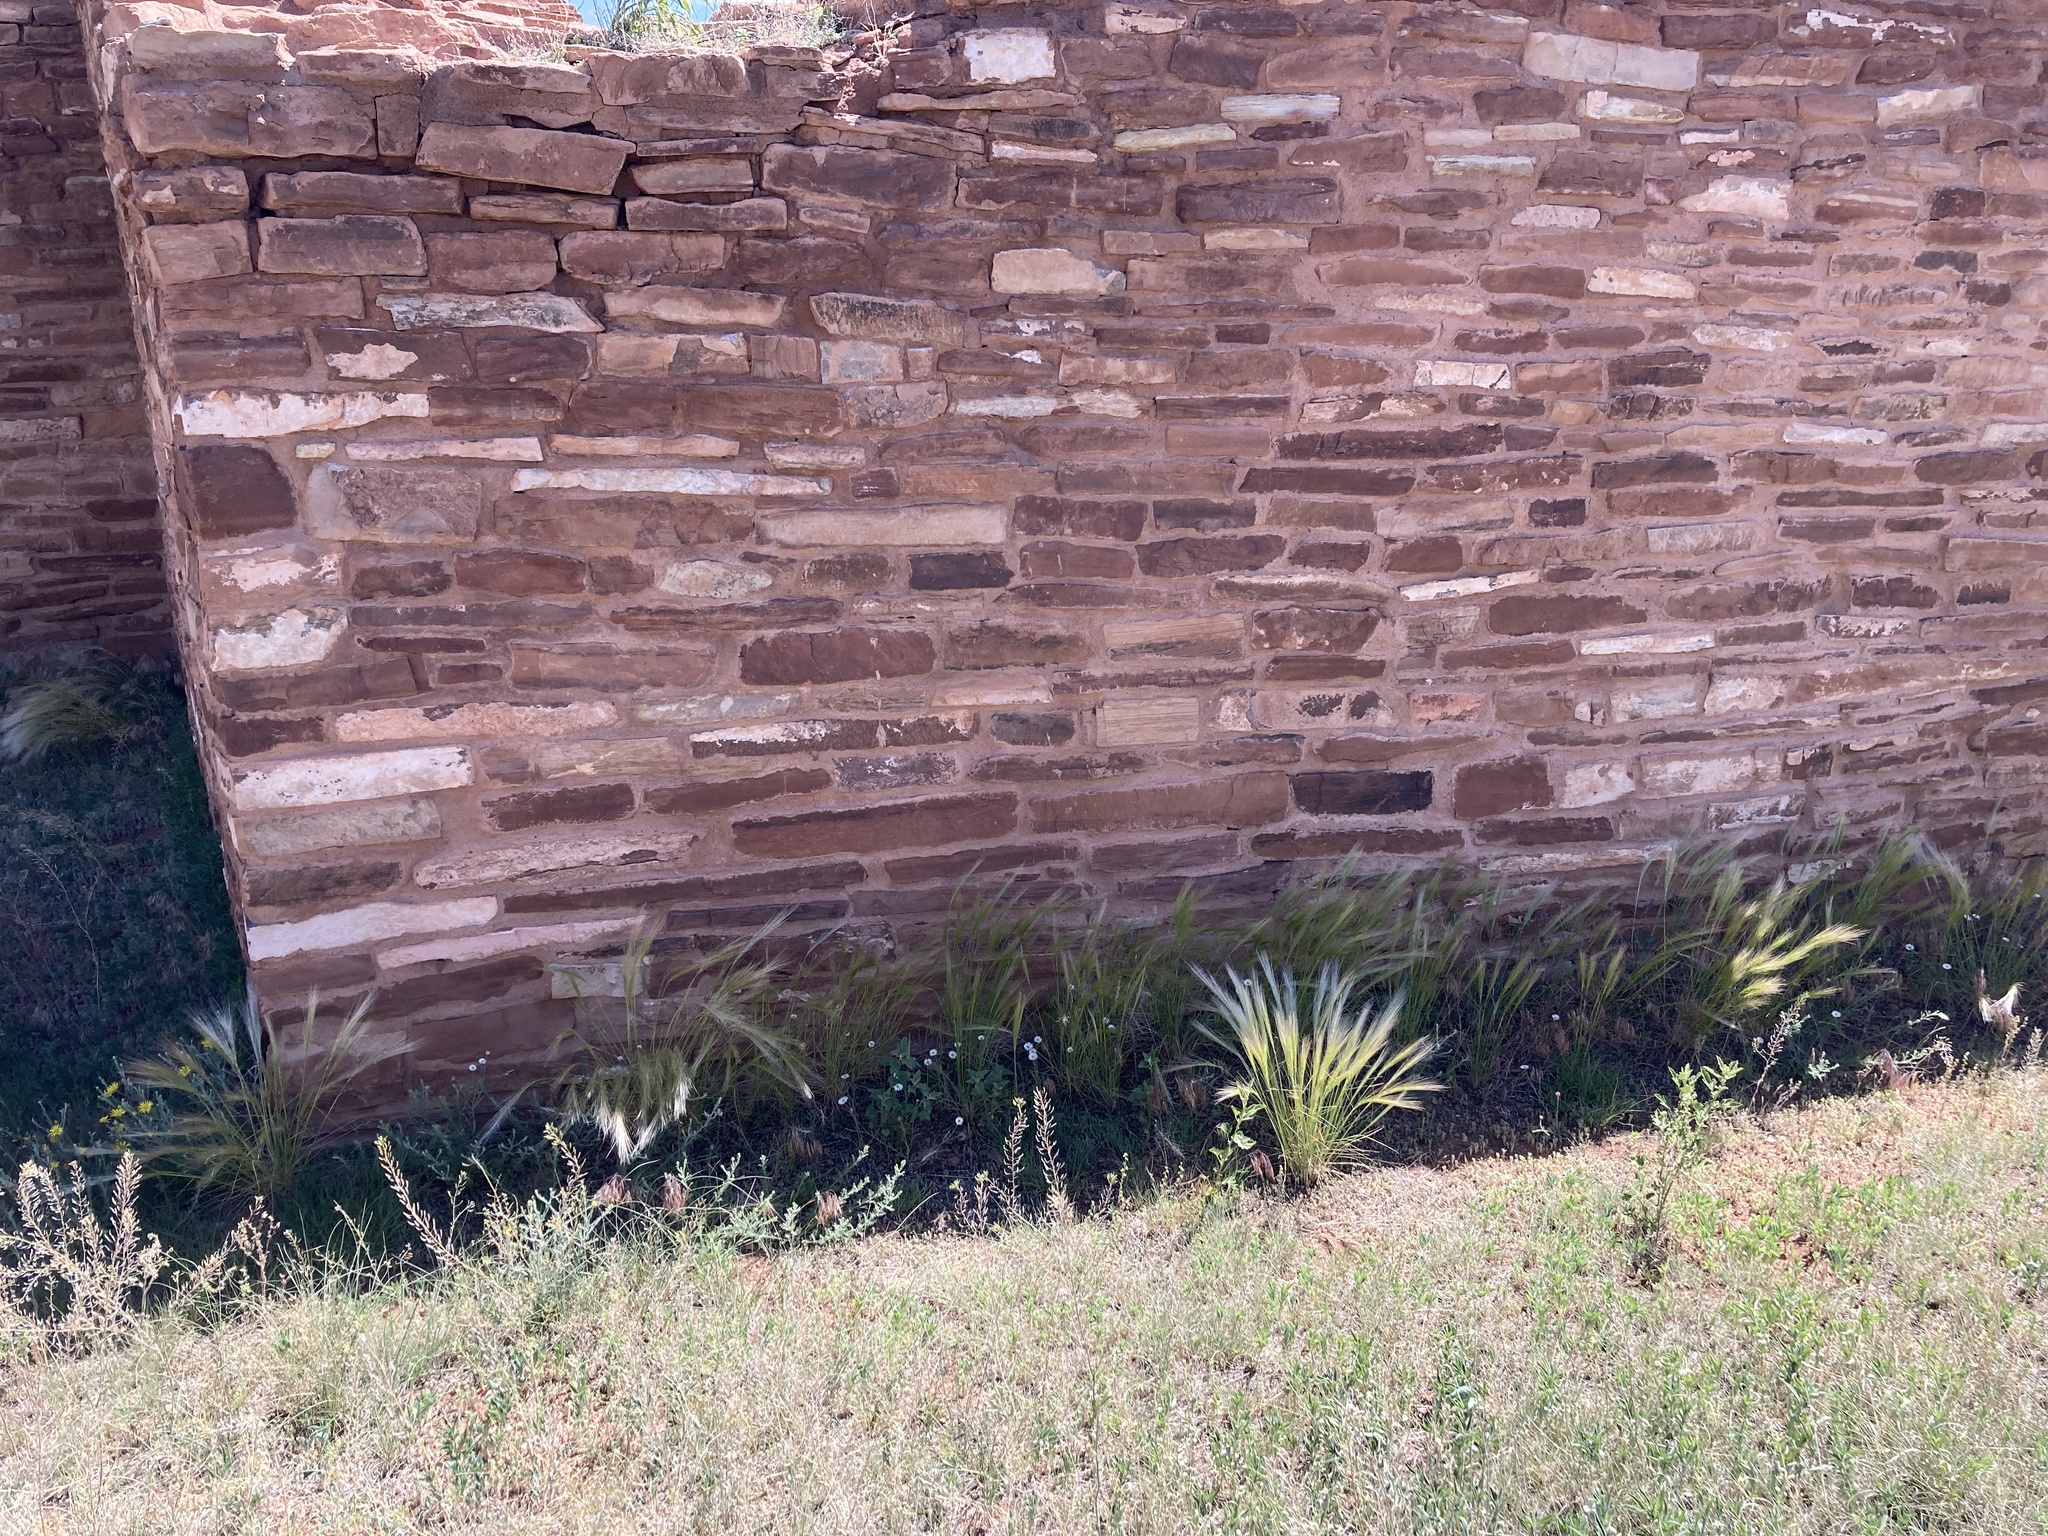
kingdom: Plantae
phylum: Tracheophyta
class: Liliopsida
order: Poales
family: Poaceae
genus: Hordeum
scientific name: Hordeum jubatum
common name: Foxtail barley
